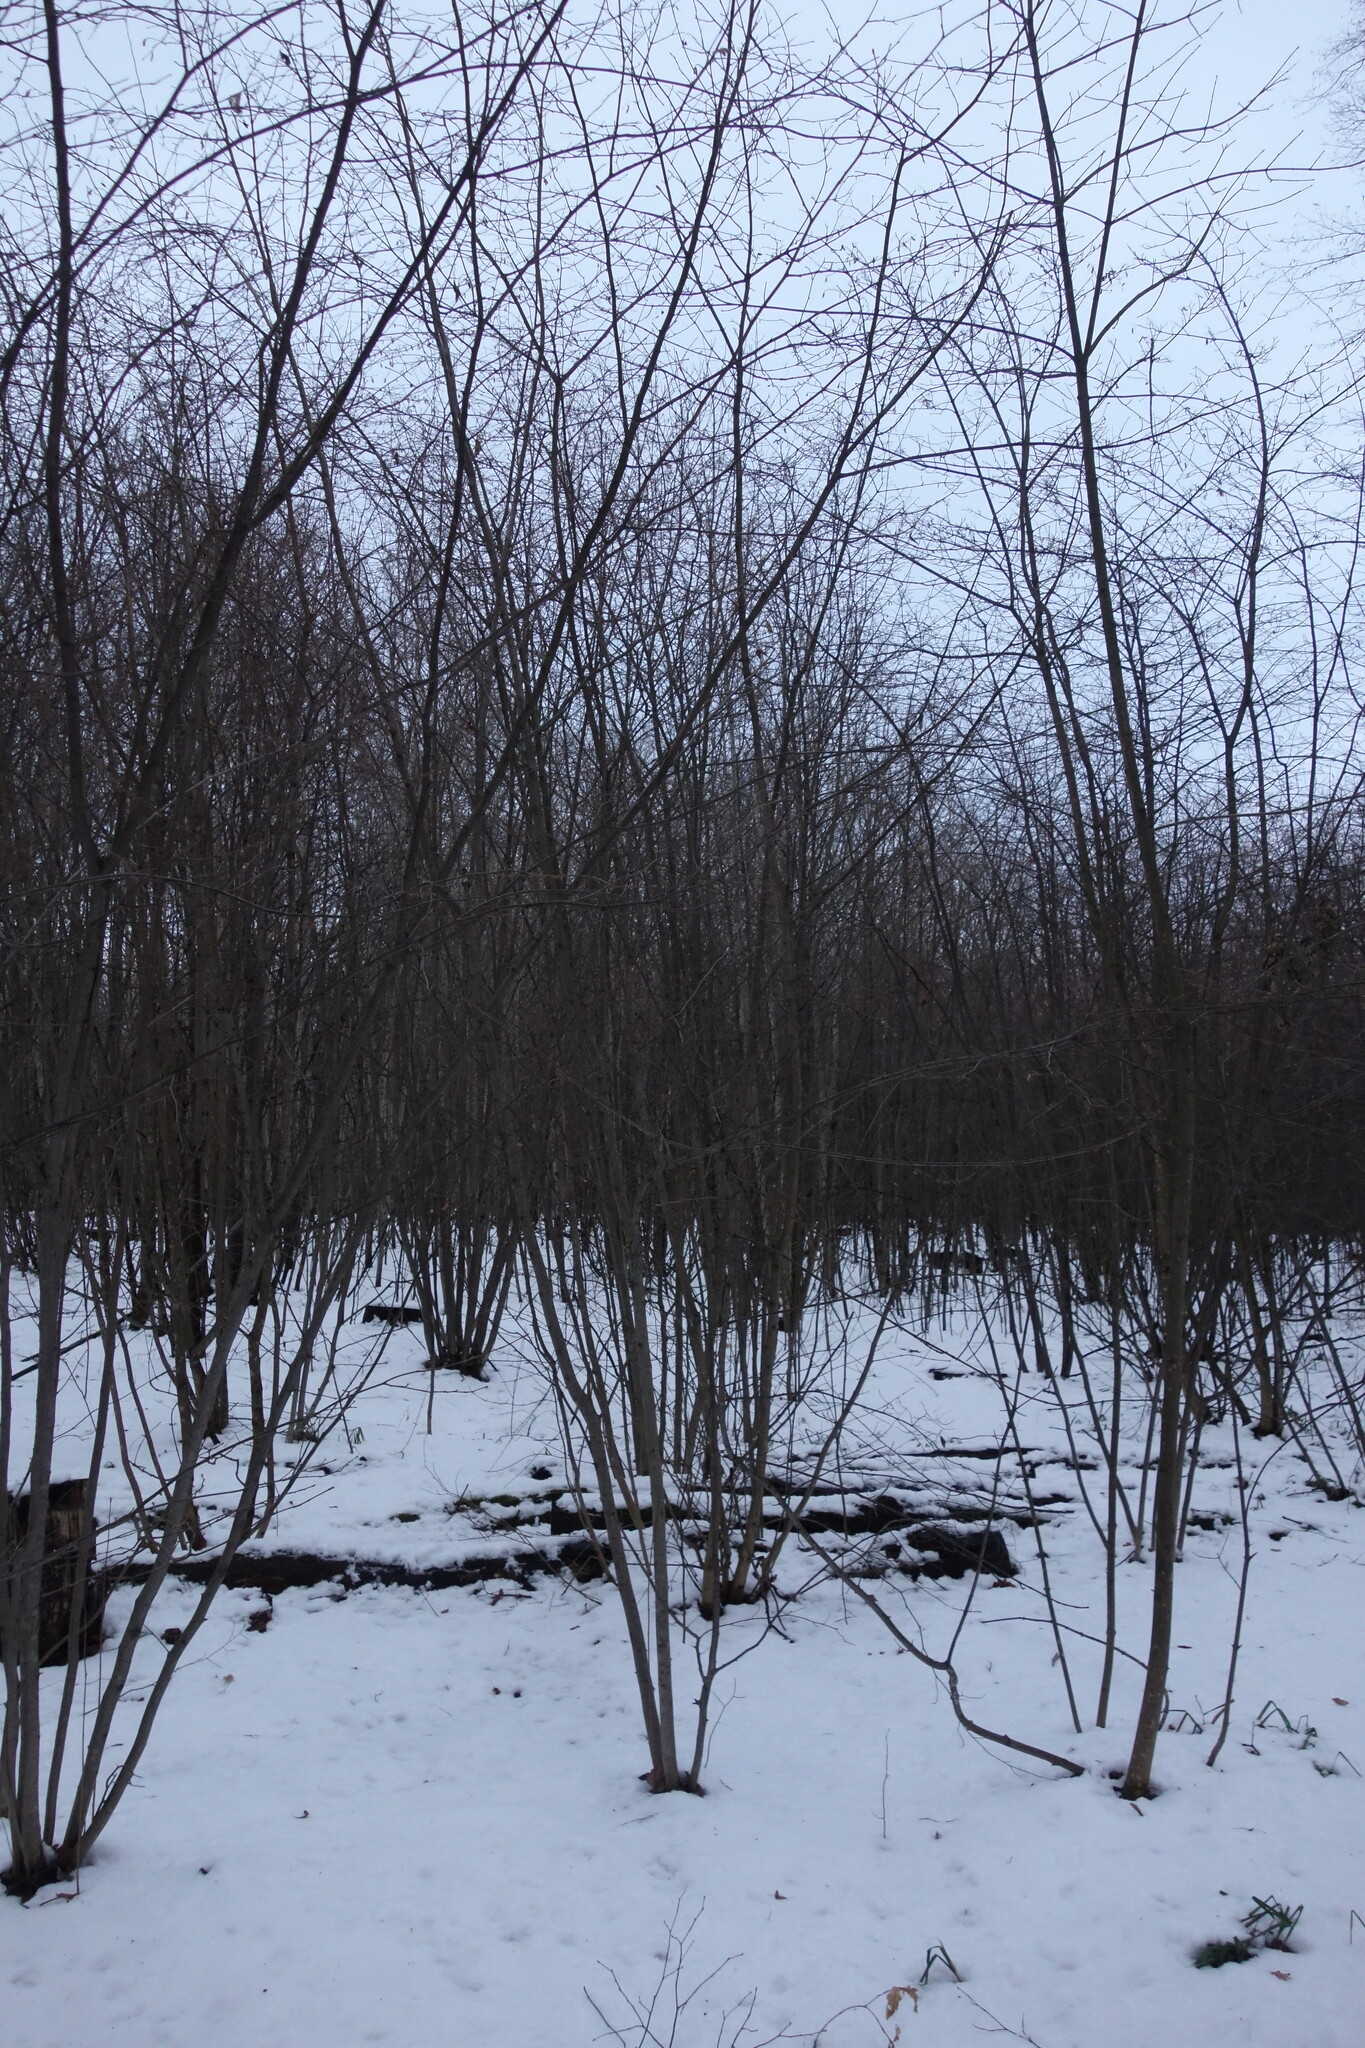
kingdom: Plantae
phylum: Tracheophyta
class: Magnoliopsida
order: Fagales
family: Betulaceae
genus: Corylus
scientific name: Corylus avellana
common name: European hazel
